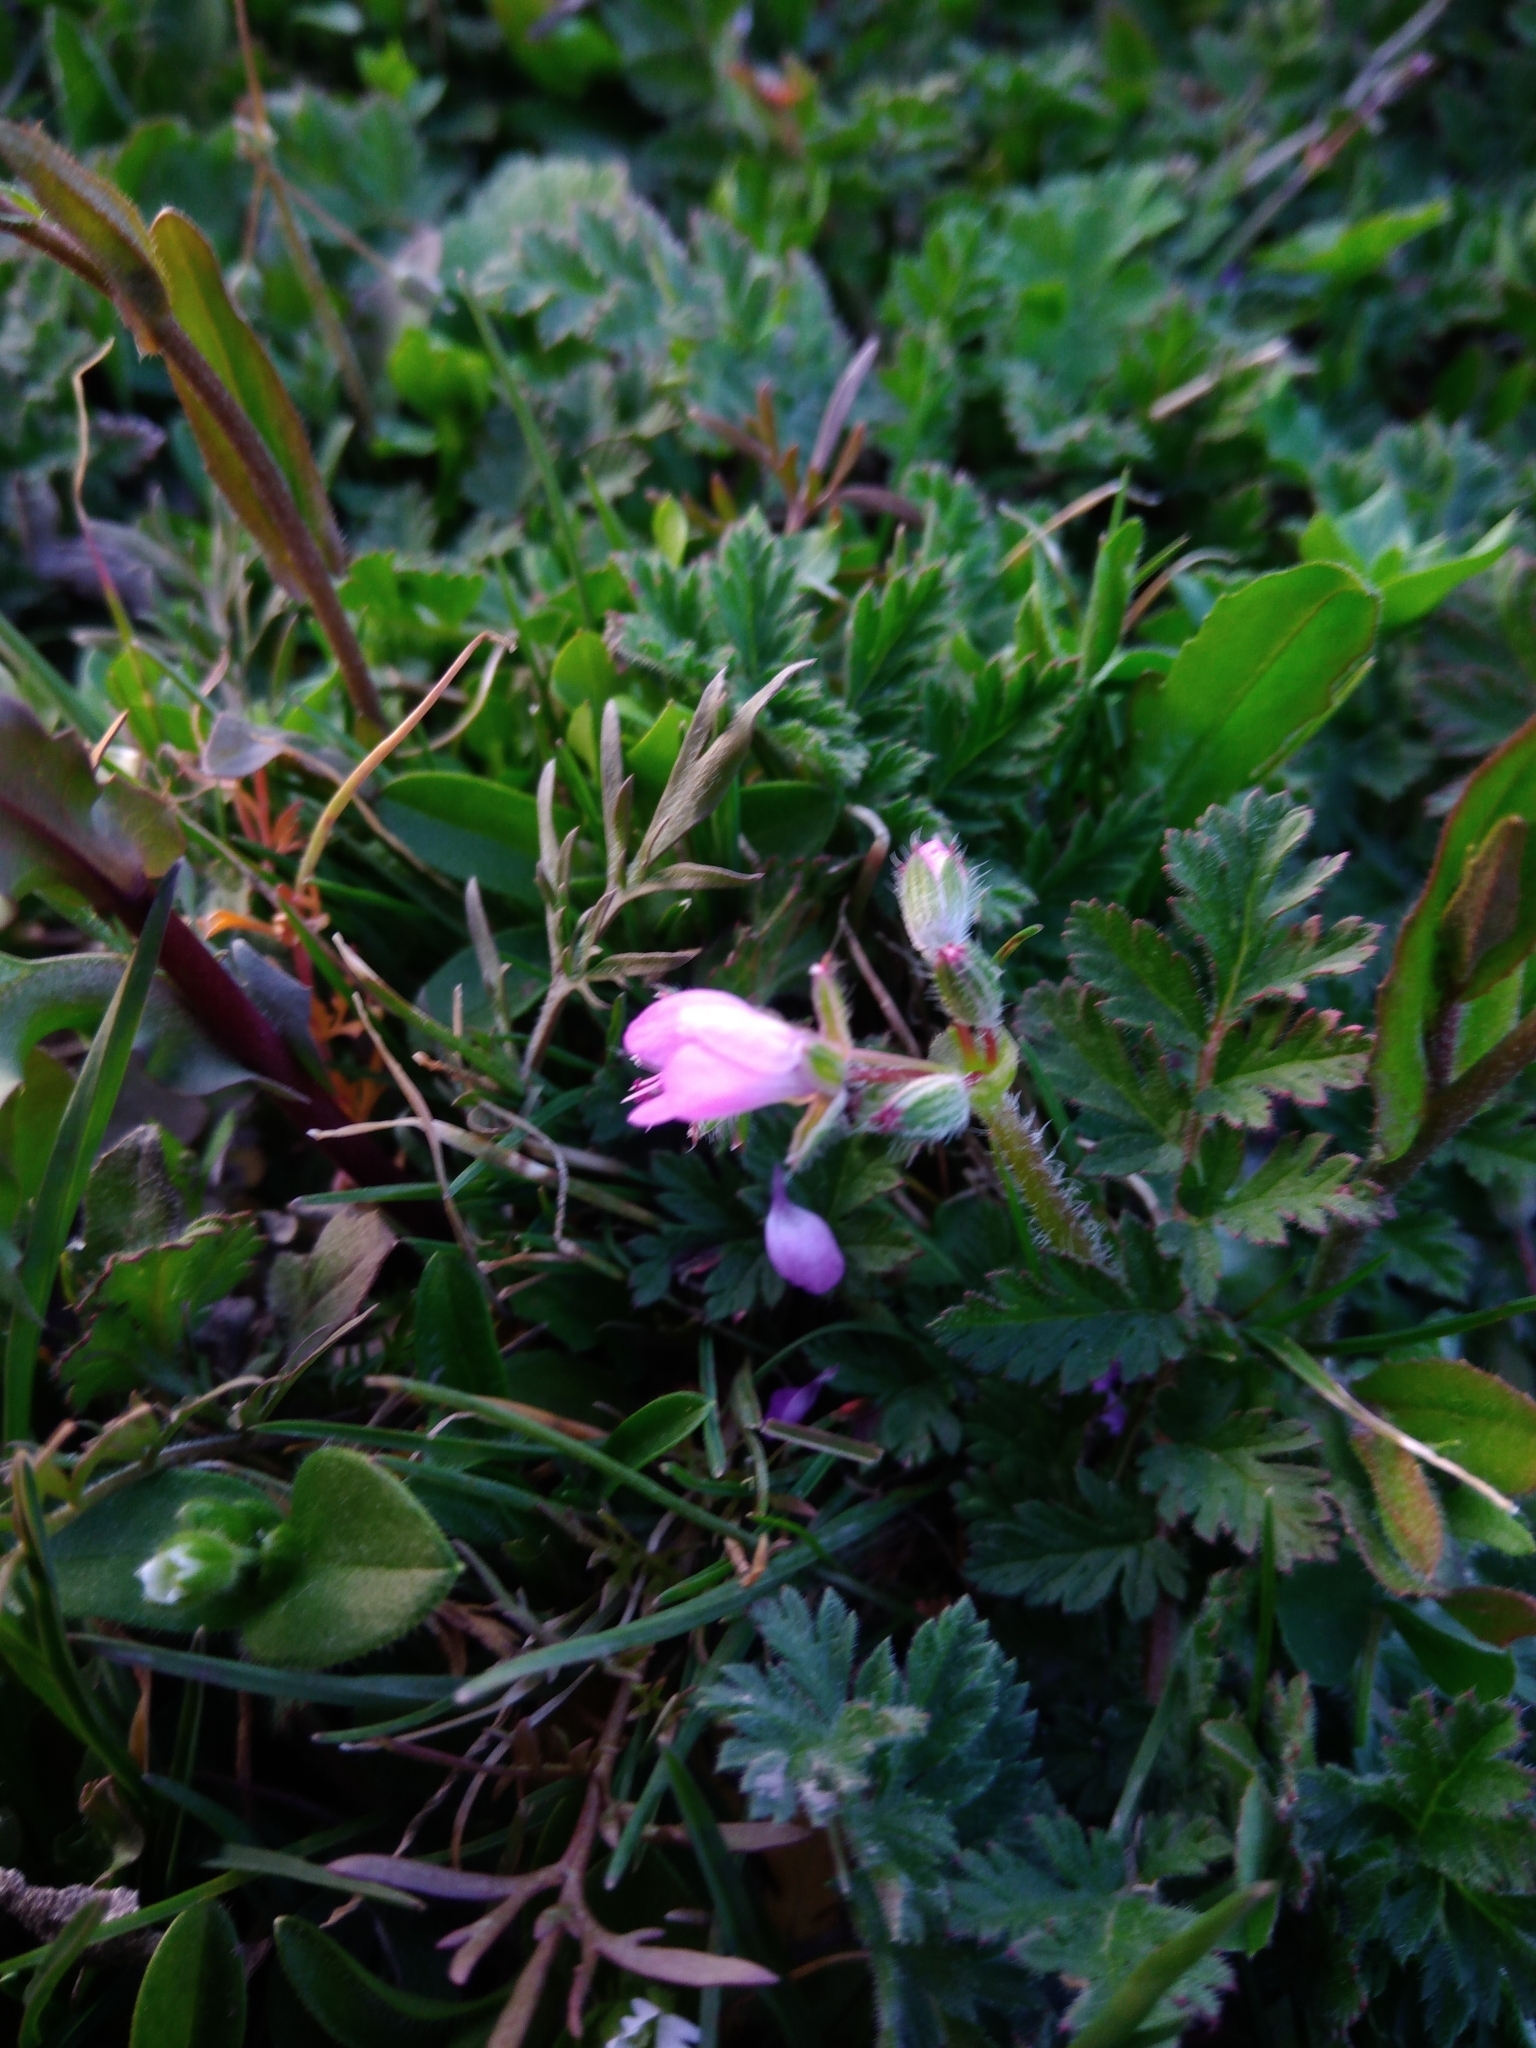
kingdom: Plantae
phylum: Tracheophyta
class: Magnoliopsida
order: Geraniales
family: Geraniaceae
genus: Erodium
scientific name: Erodium cicutarium
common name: Common stork's-bill
